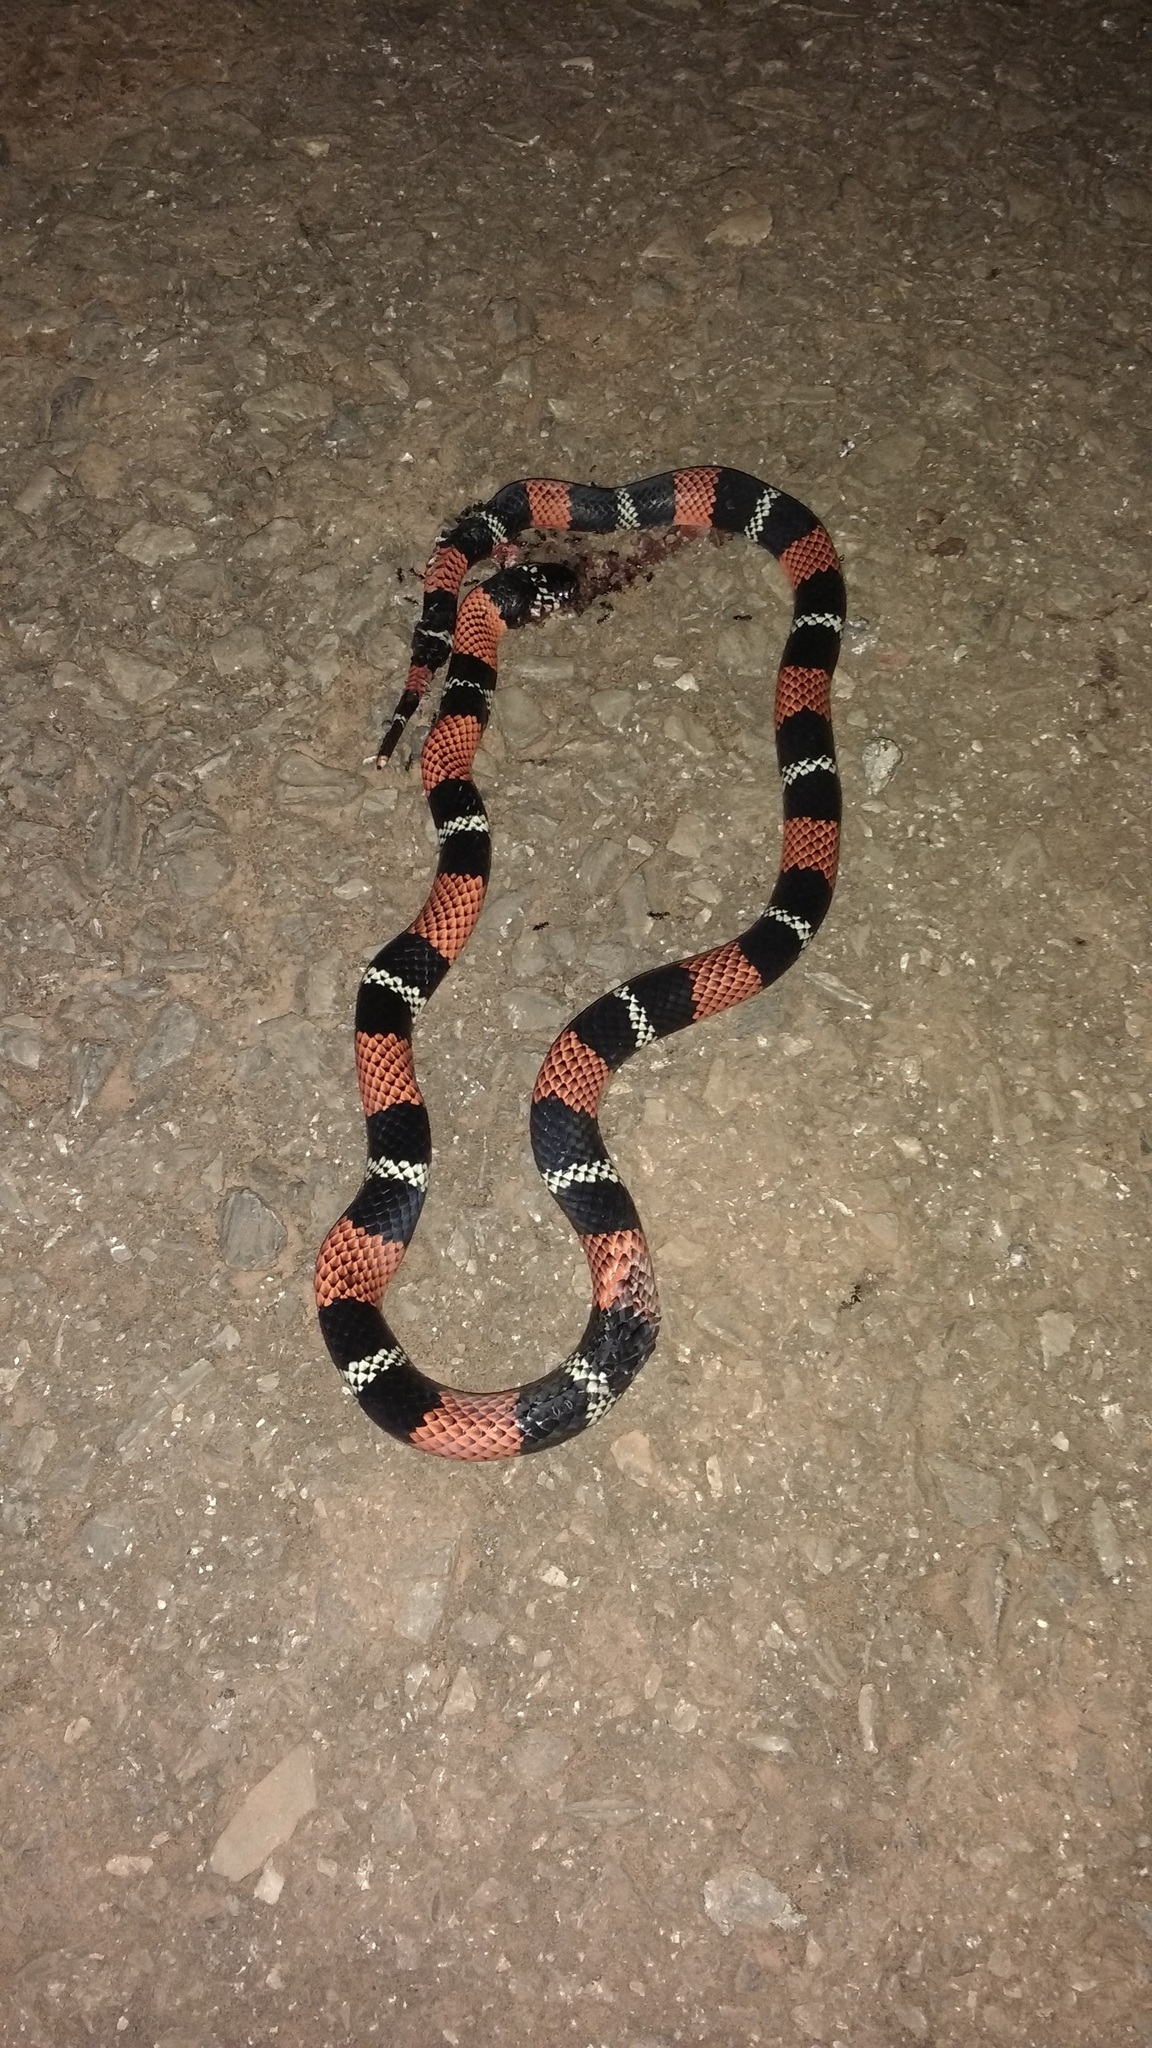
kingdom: Animalia
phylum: Chordata
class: Squamata
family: Colubridae
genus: Erythrolamprus
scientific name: Erythrolamprus aesculapii
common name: Aesculapian false coral snake
